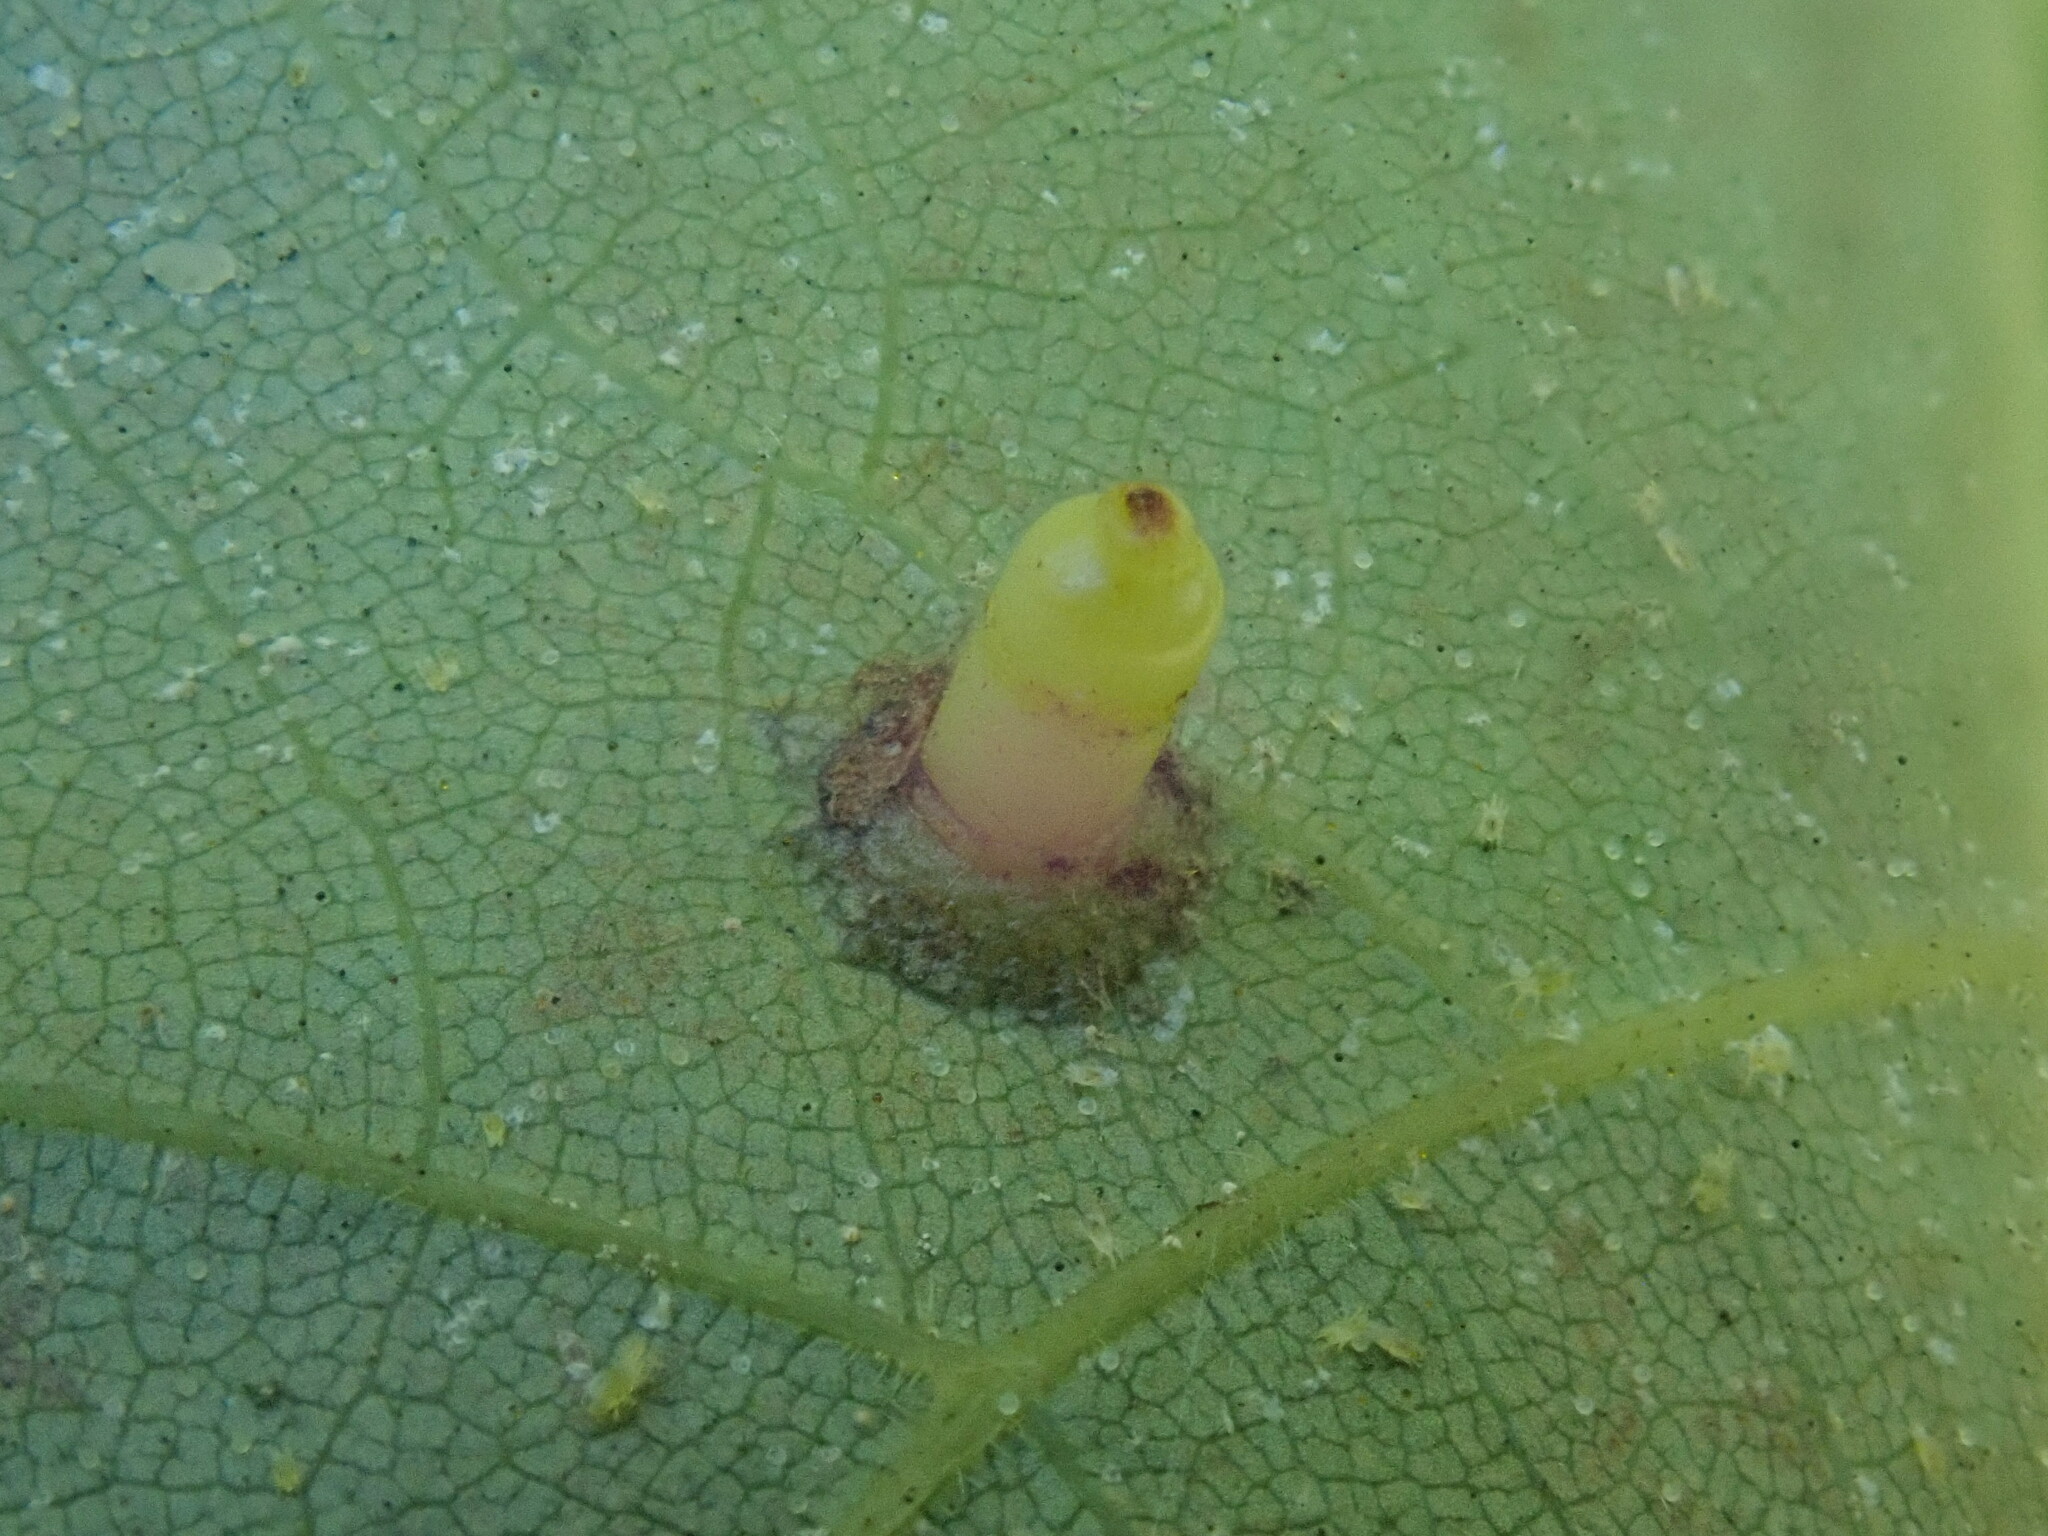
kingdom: Animalia
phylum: Arthropoda
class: Insecta
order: Diptera
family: Cecidomyiidae
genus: Caryomyia
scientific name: Caryomyia tubicola
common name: Hickory bullet gall midge
